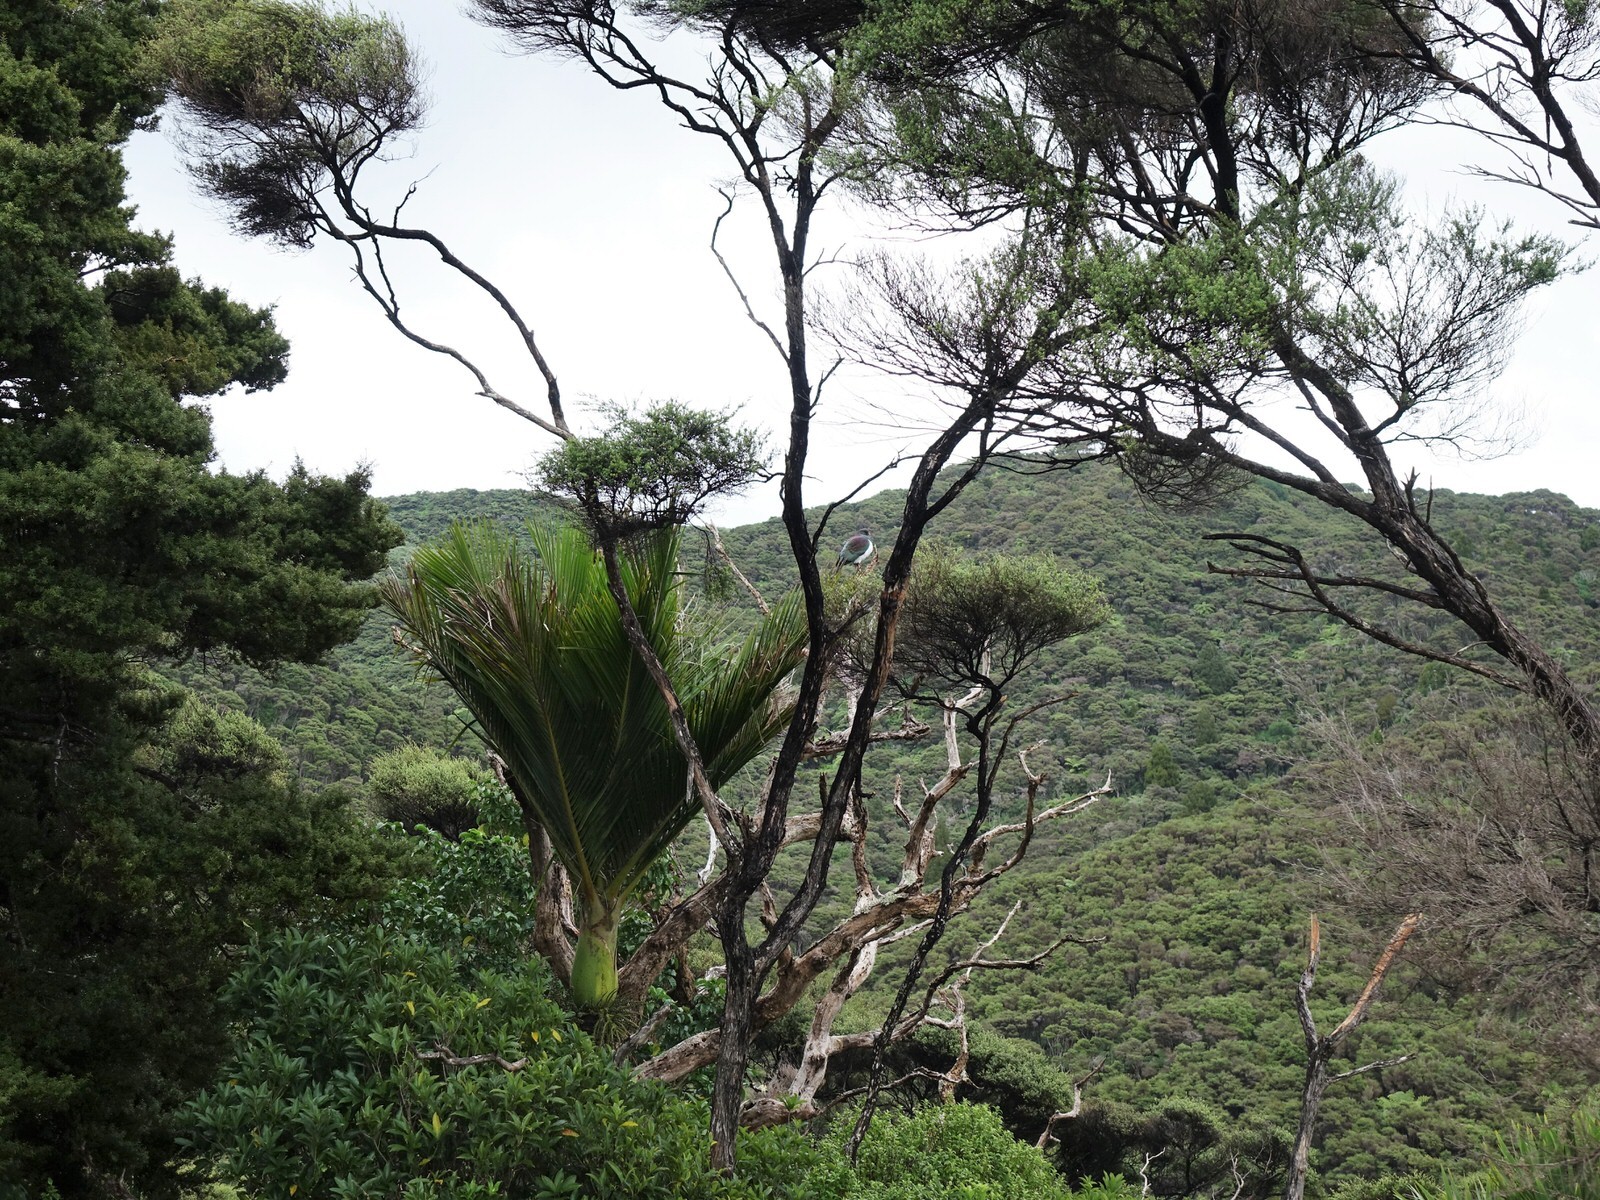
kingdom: Animalia
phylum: Chordata
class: Aves
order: Columbiformes
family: Columbidae
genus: Hemiphaga
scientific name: Hemiphaga novaeseelandiae
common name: New zealand pigeon
